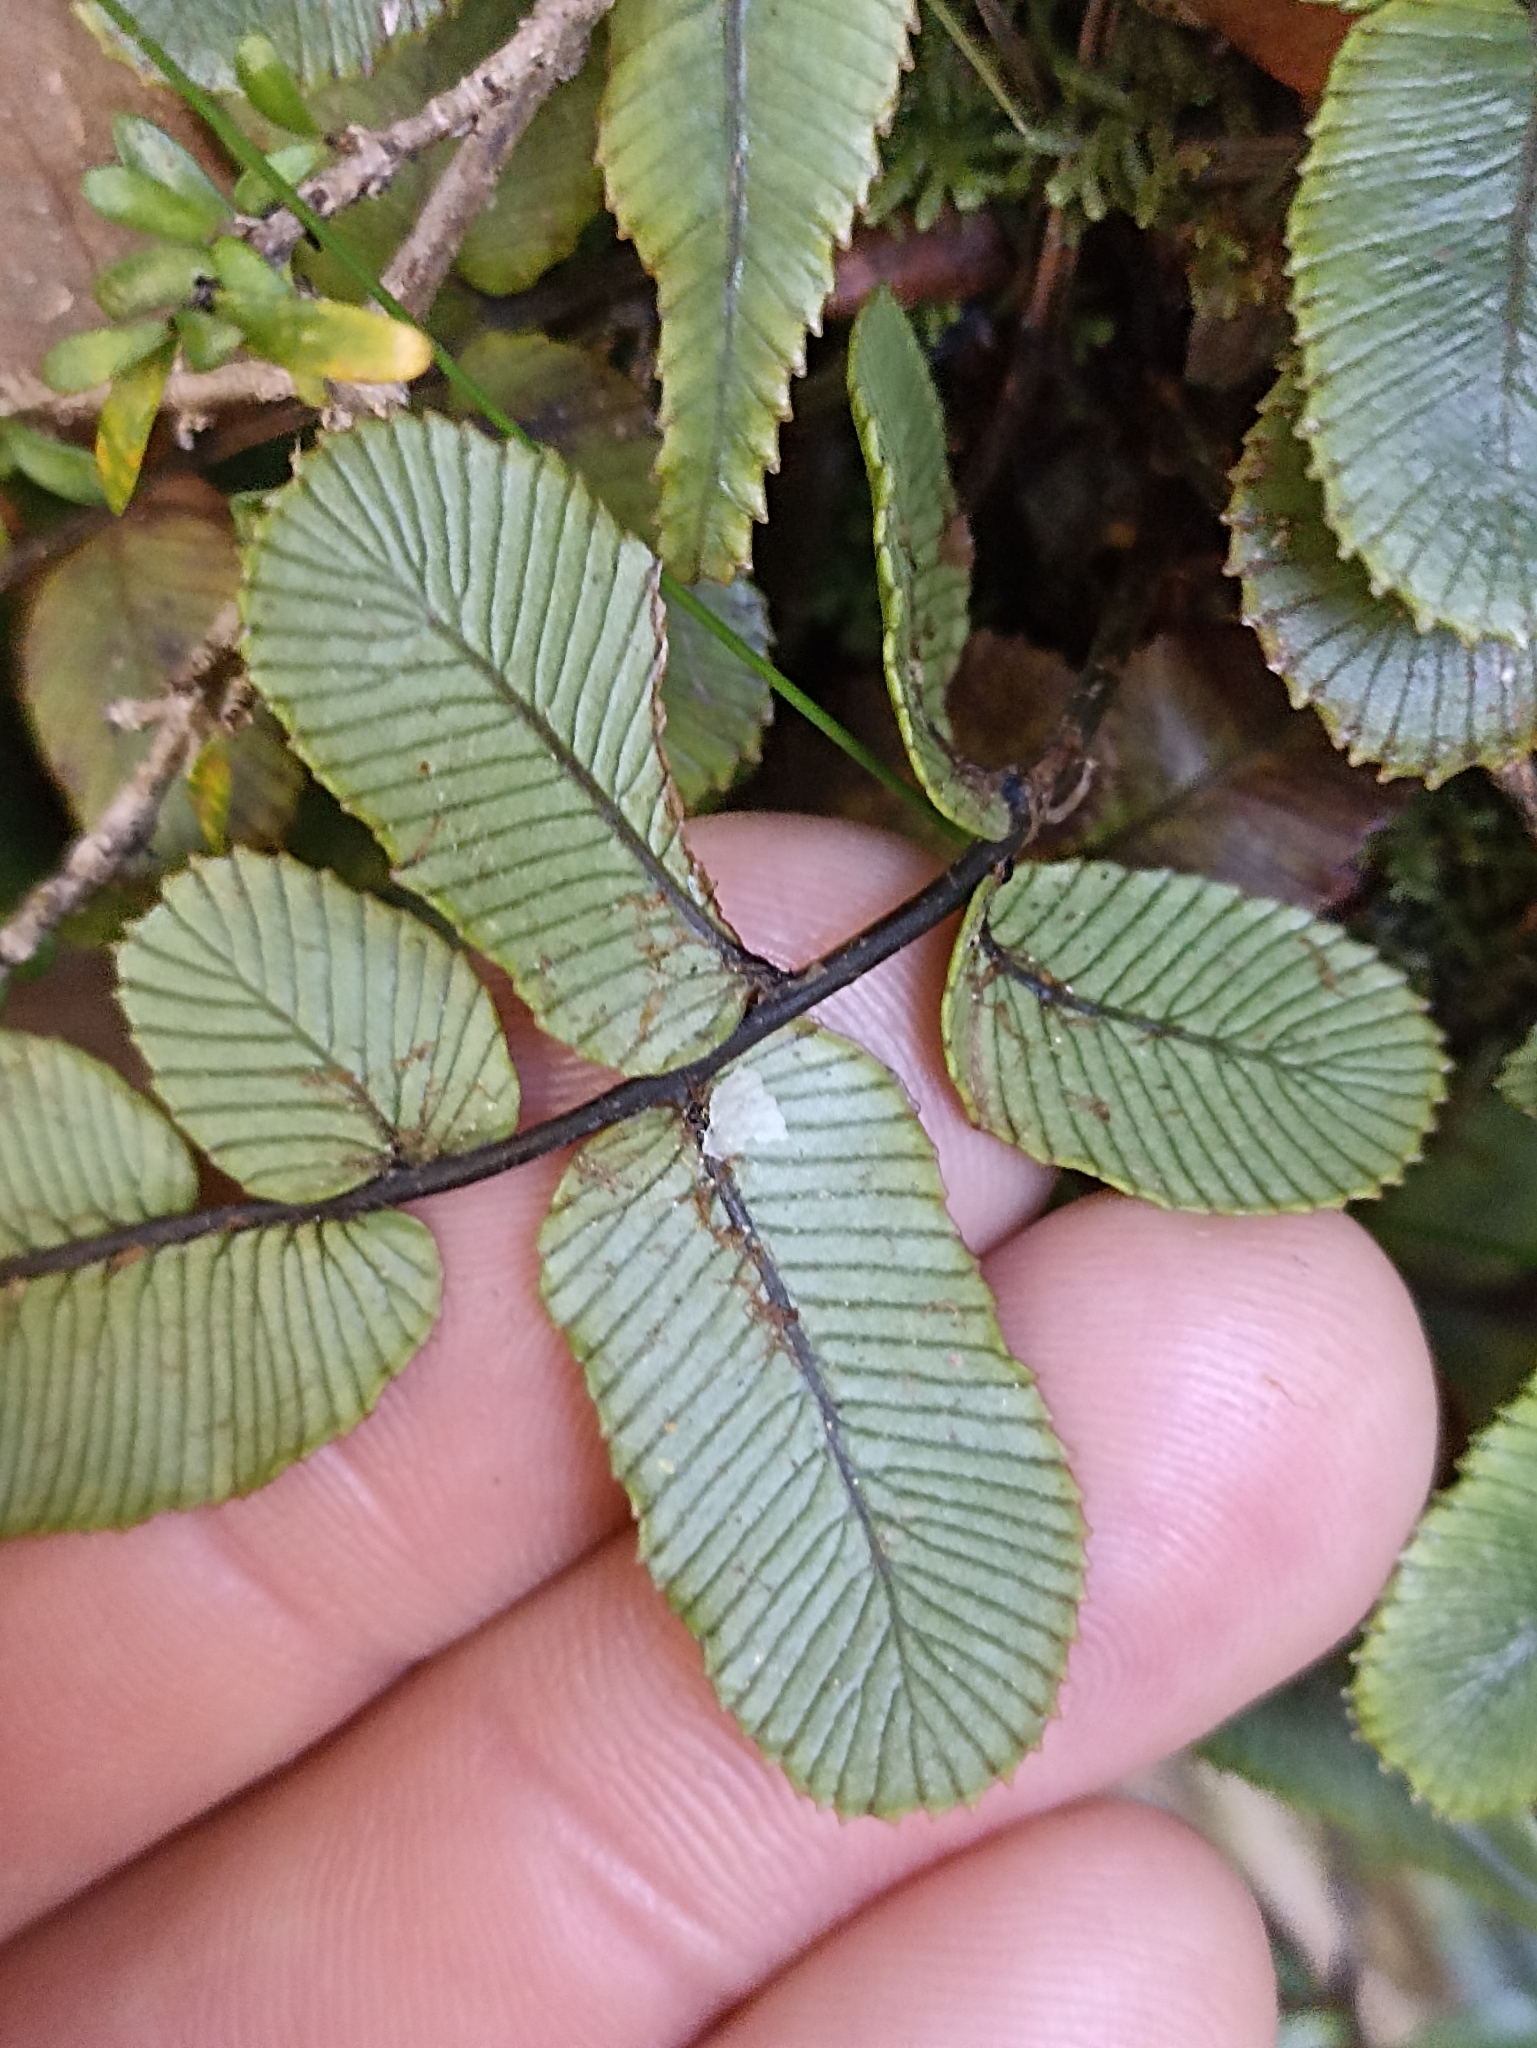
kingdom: Plantae
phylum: Tracheophyta
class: Polypodiopsida
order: Polypodiales
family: Blechnaceae
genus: Parablechnum
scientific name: Parablechnum procerum
